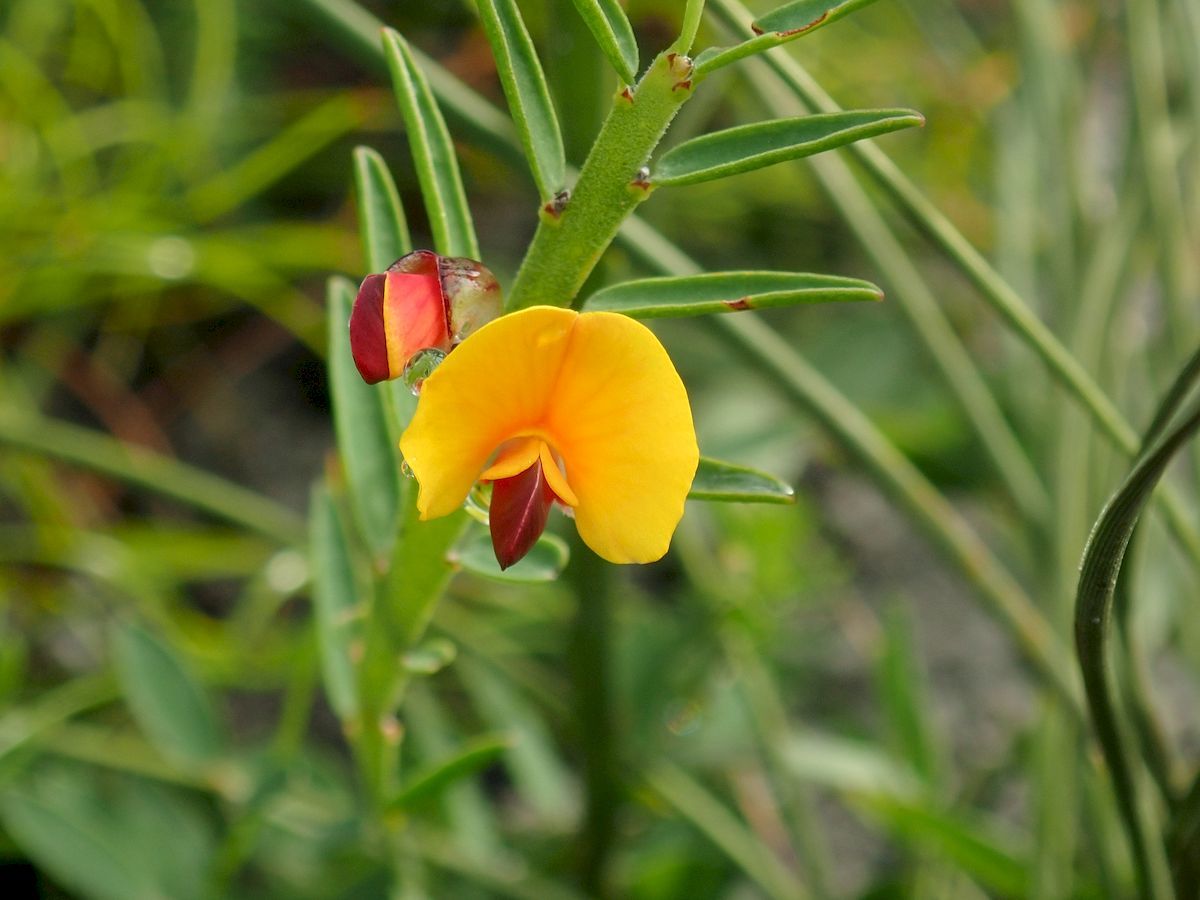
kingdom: Plantae
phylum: Tracheophyta
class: Magnoliopsida
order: Fabales
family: Fabaceae
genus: Bossiaea
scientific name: Bossiaea heterophylla
